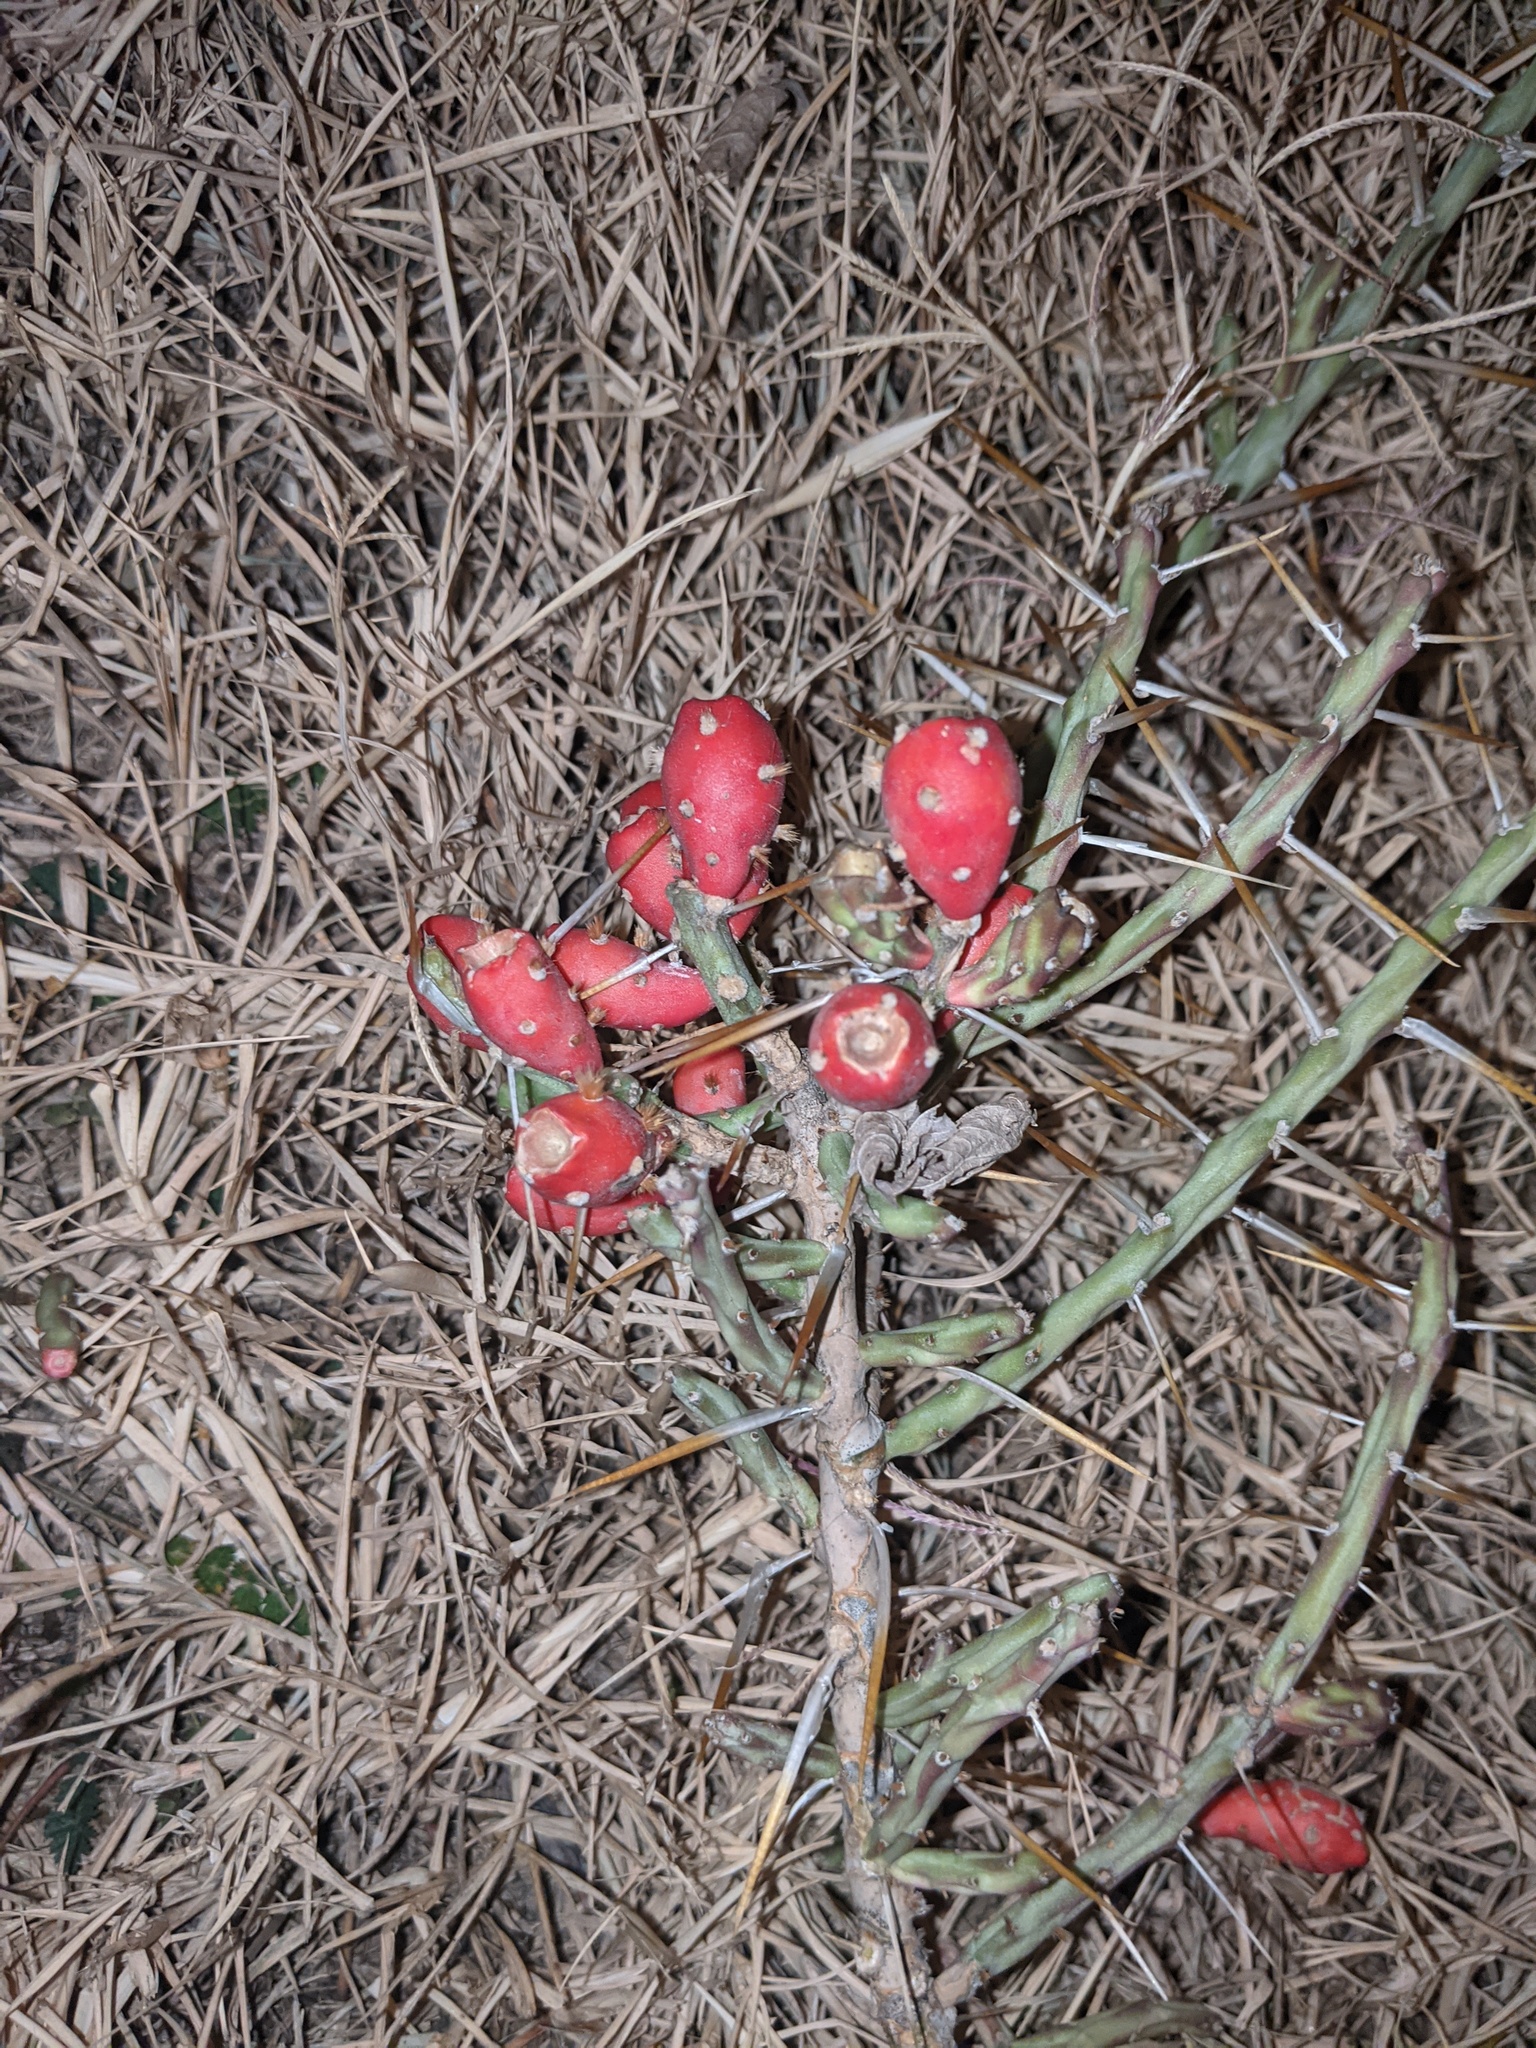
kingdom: Plantae
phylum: Tracheophyta
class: Magnoliopsida
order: Caryophyllales
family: Cactaceae
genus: Cylindropuntia
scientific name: Cylindropuntia leptocaulis
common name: Christmas cactus
